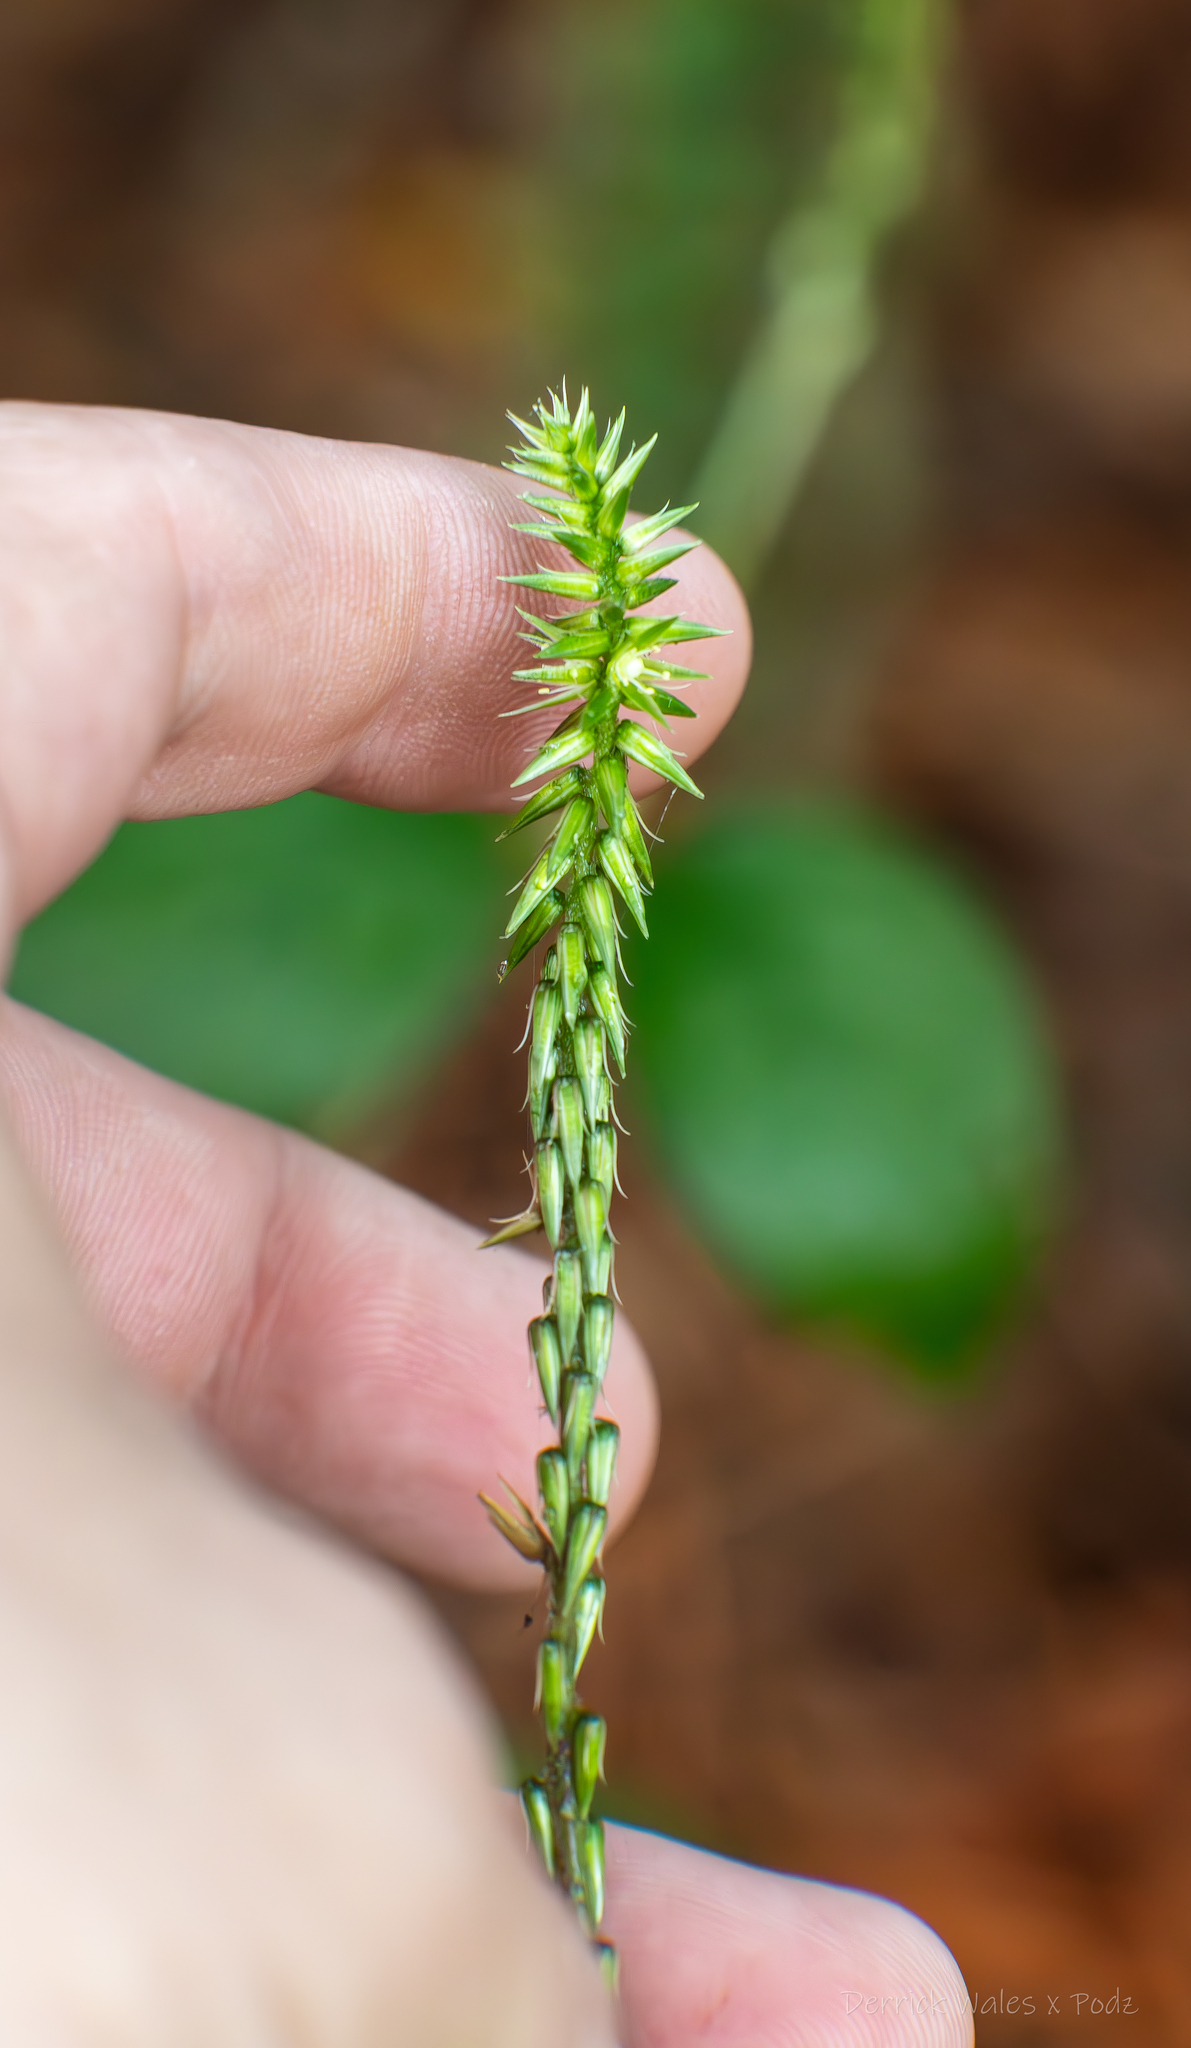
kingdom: Plantae
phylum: Tracheophyta
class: Magnoliopsida
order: Caryophyllales
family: Amaranthaceae
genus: Achyranthes
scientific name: Achyranthes bidentata
